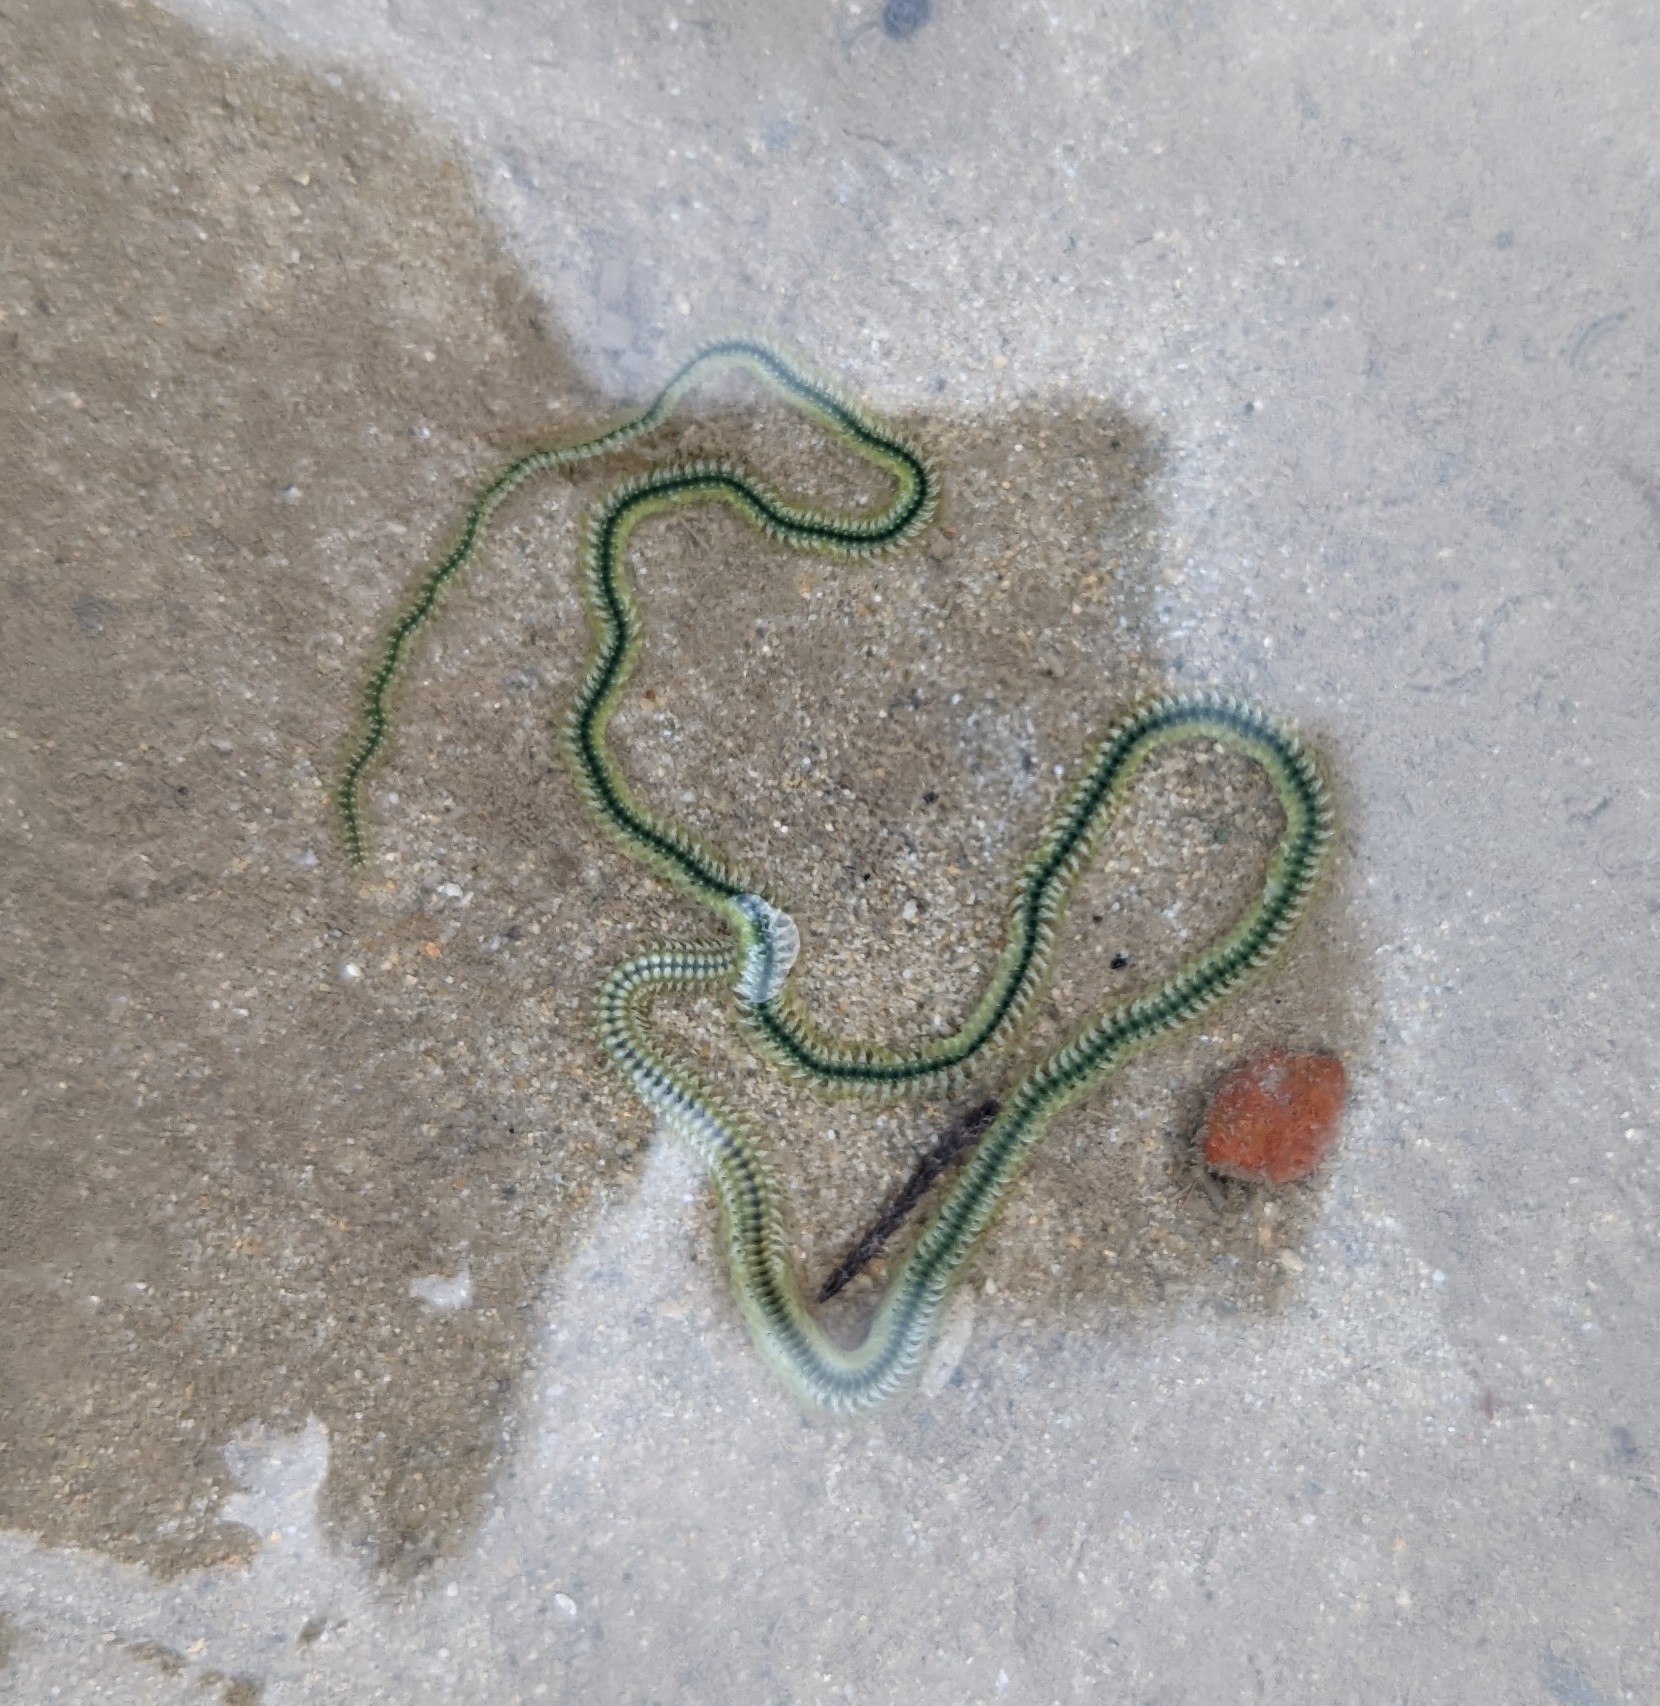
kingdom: Animalia
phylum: Annelida
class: Polychaeta
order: Phyllodocida
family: Phyllodocidae
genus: Phyllodoce
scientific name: Phyllodoce novaehollandiae
